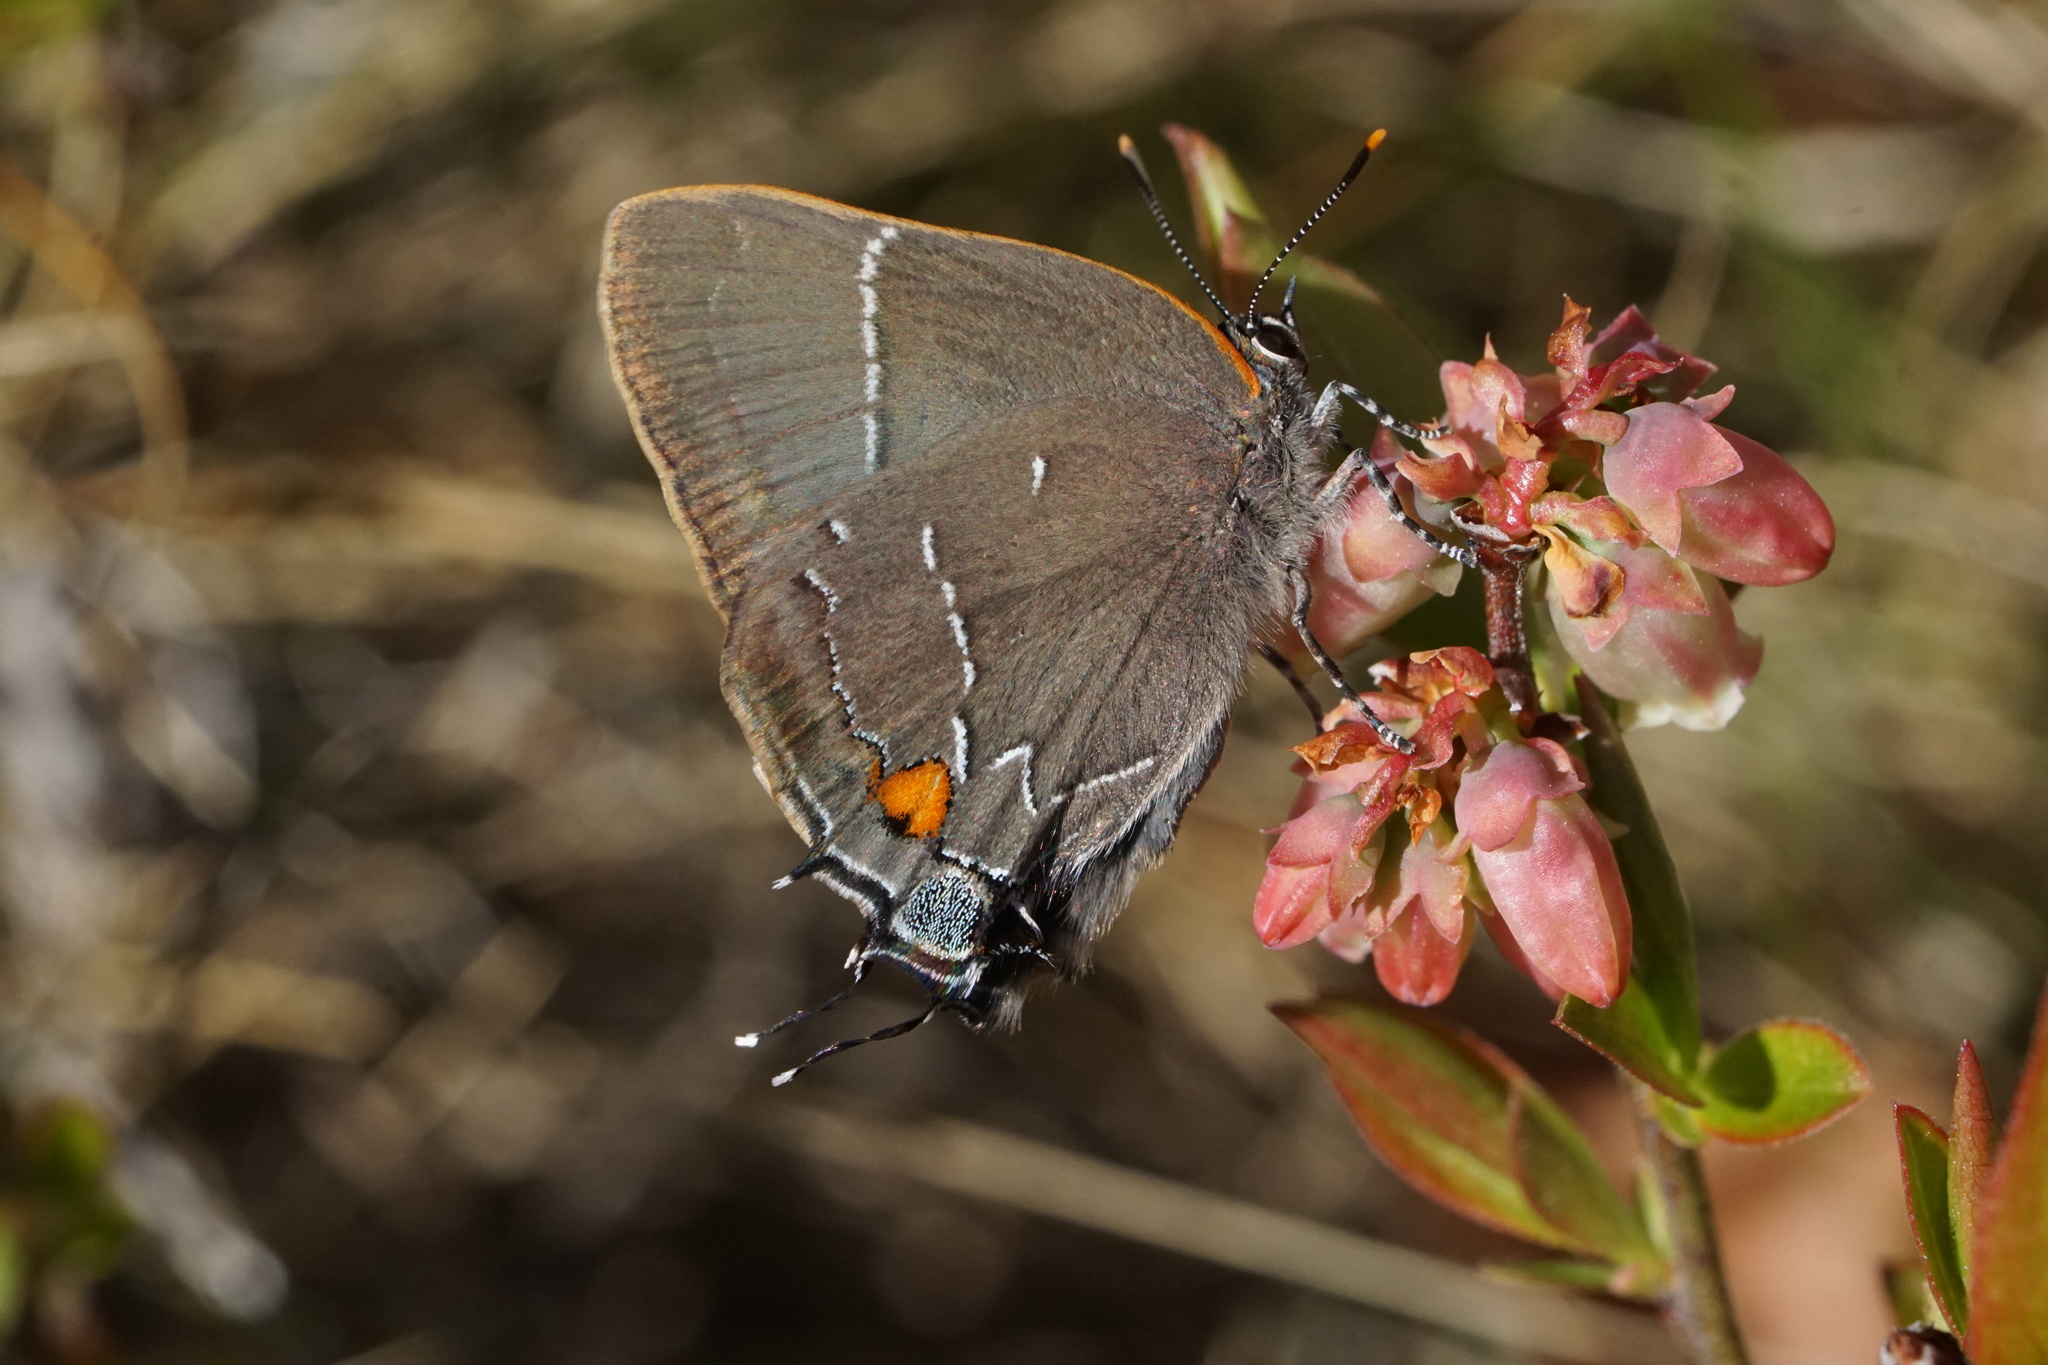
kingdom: Animalia
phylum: Arthropoda
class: Insecta
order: Lepidoptera
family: Lycaenidae
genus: Parrhasius
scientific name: Parrhasius m-album
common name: White m hairstreak
